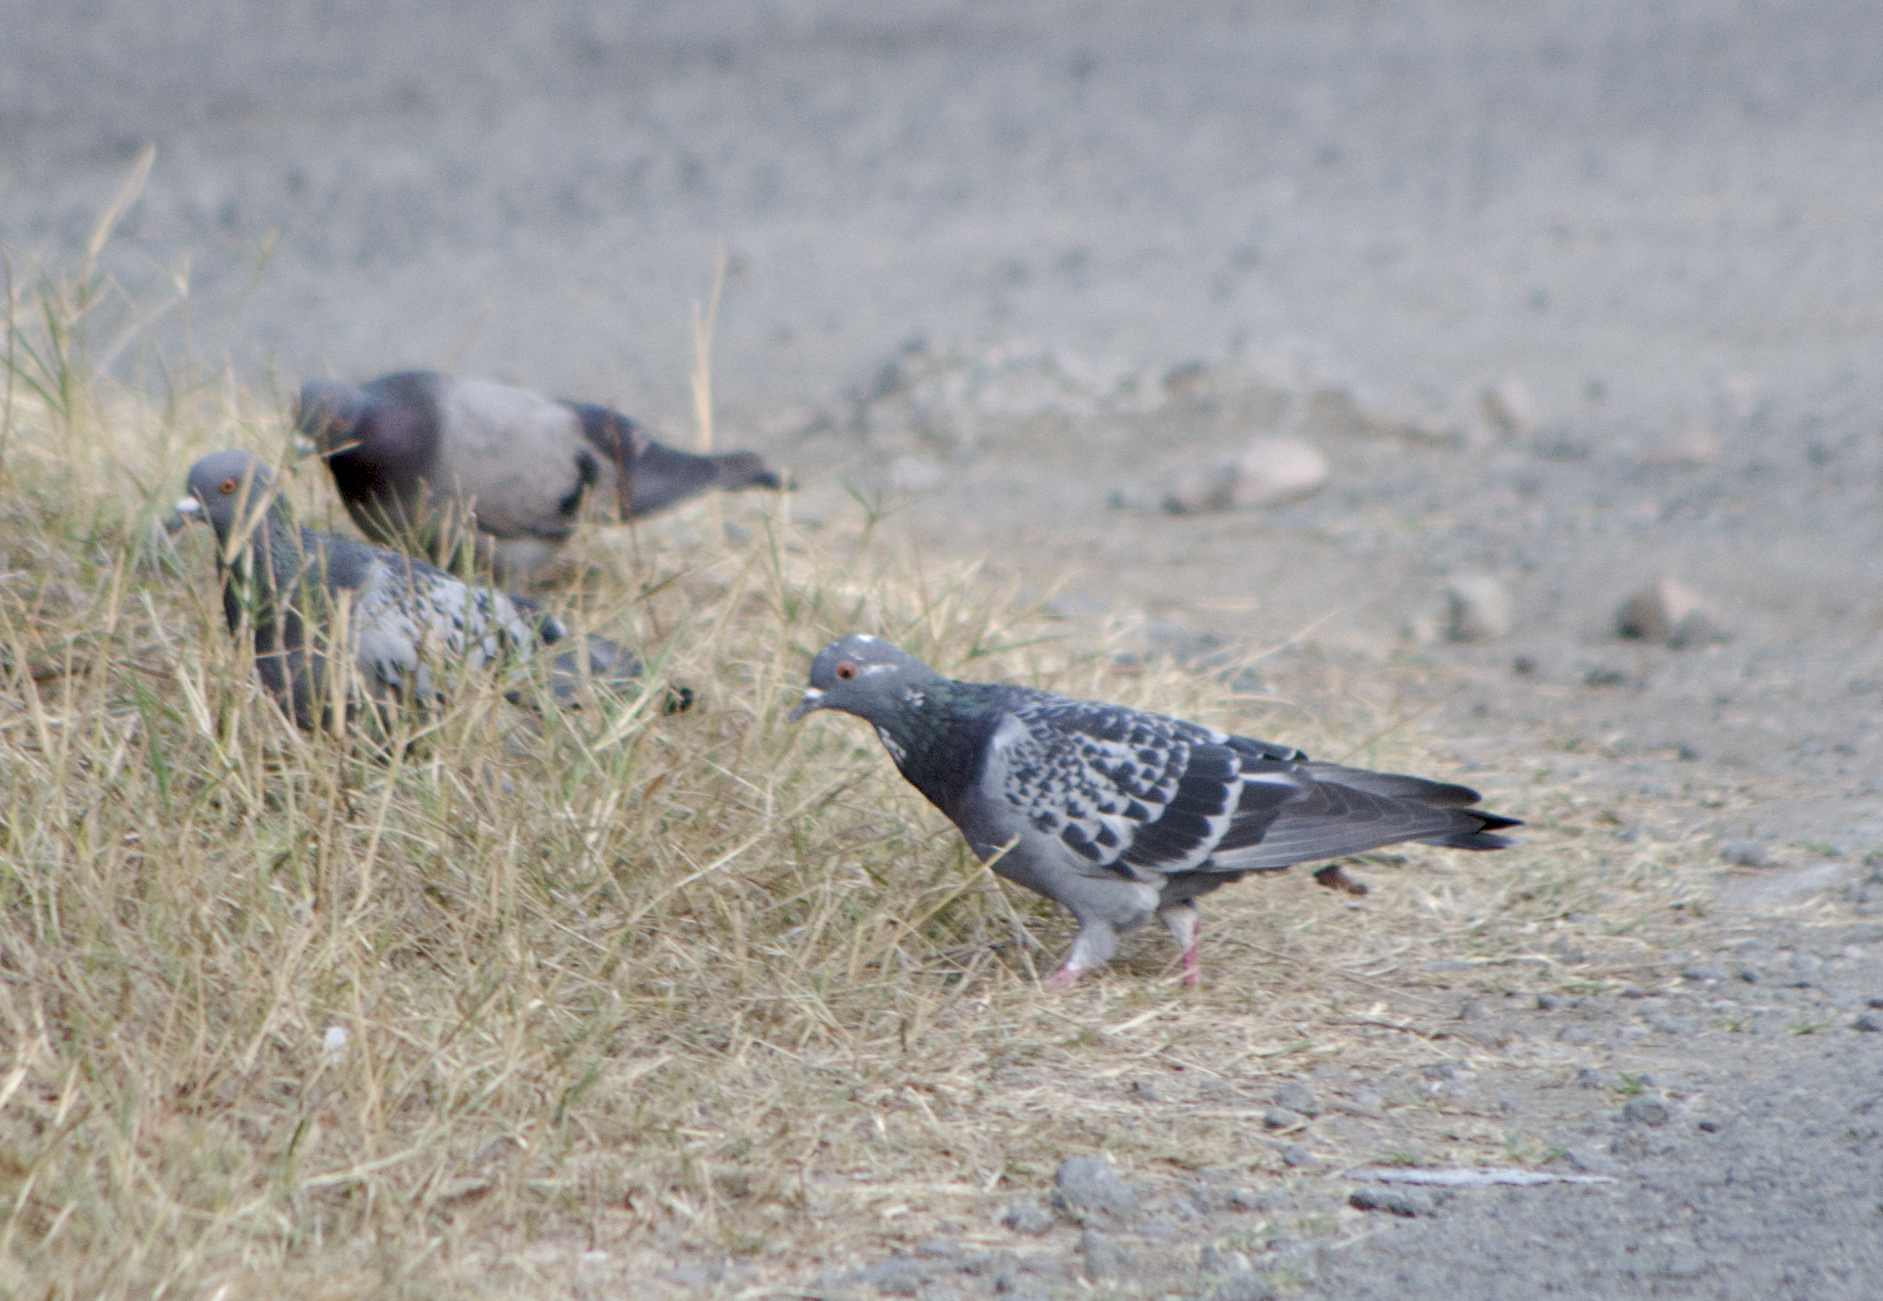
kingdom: Animalia
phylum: Chordata
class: Aves
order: Columbiformes
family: Columbidae
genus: Columba
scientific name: Columba livia
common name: Rock pigeon
